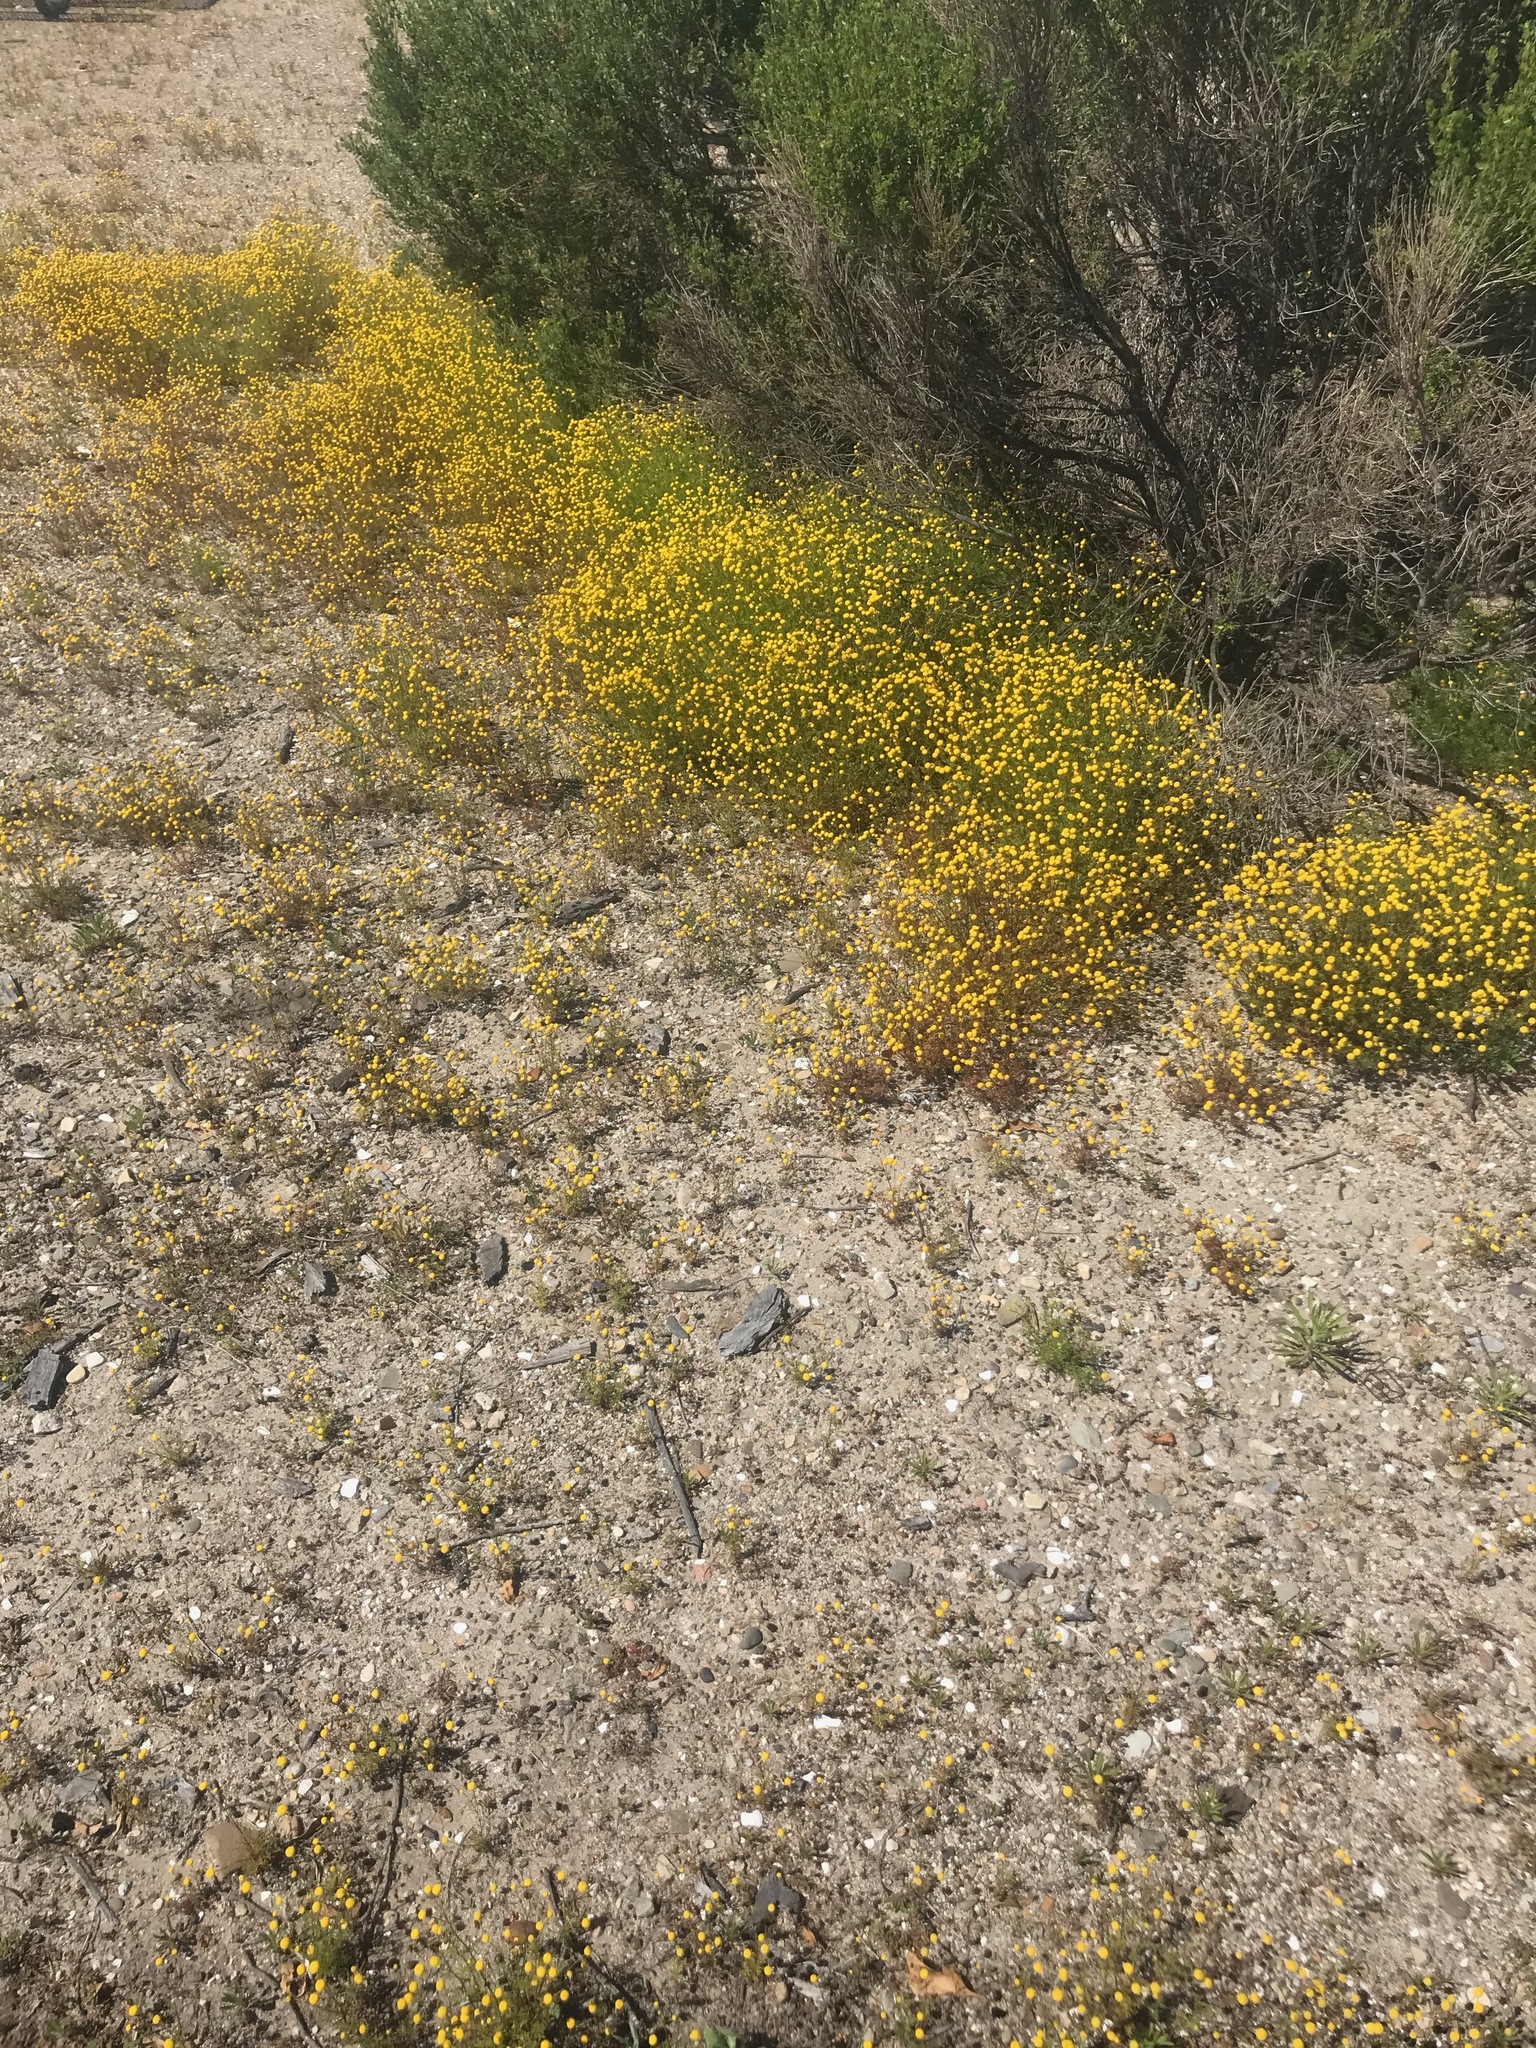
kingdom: Plantae
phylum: Tracheophyta
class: Magnoliopsida
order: Asterales
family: Asteraceae
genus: Oncosiphon
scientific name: Oncosiphon pilulifer
